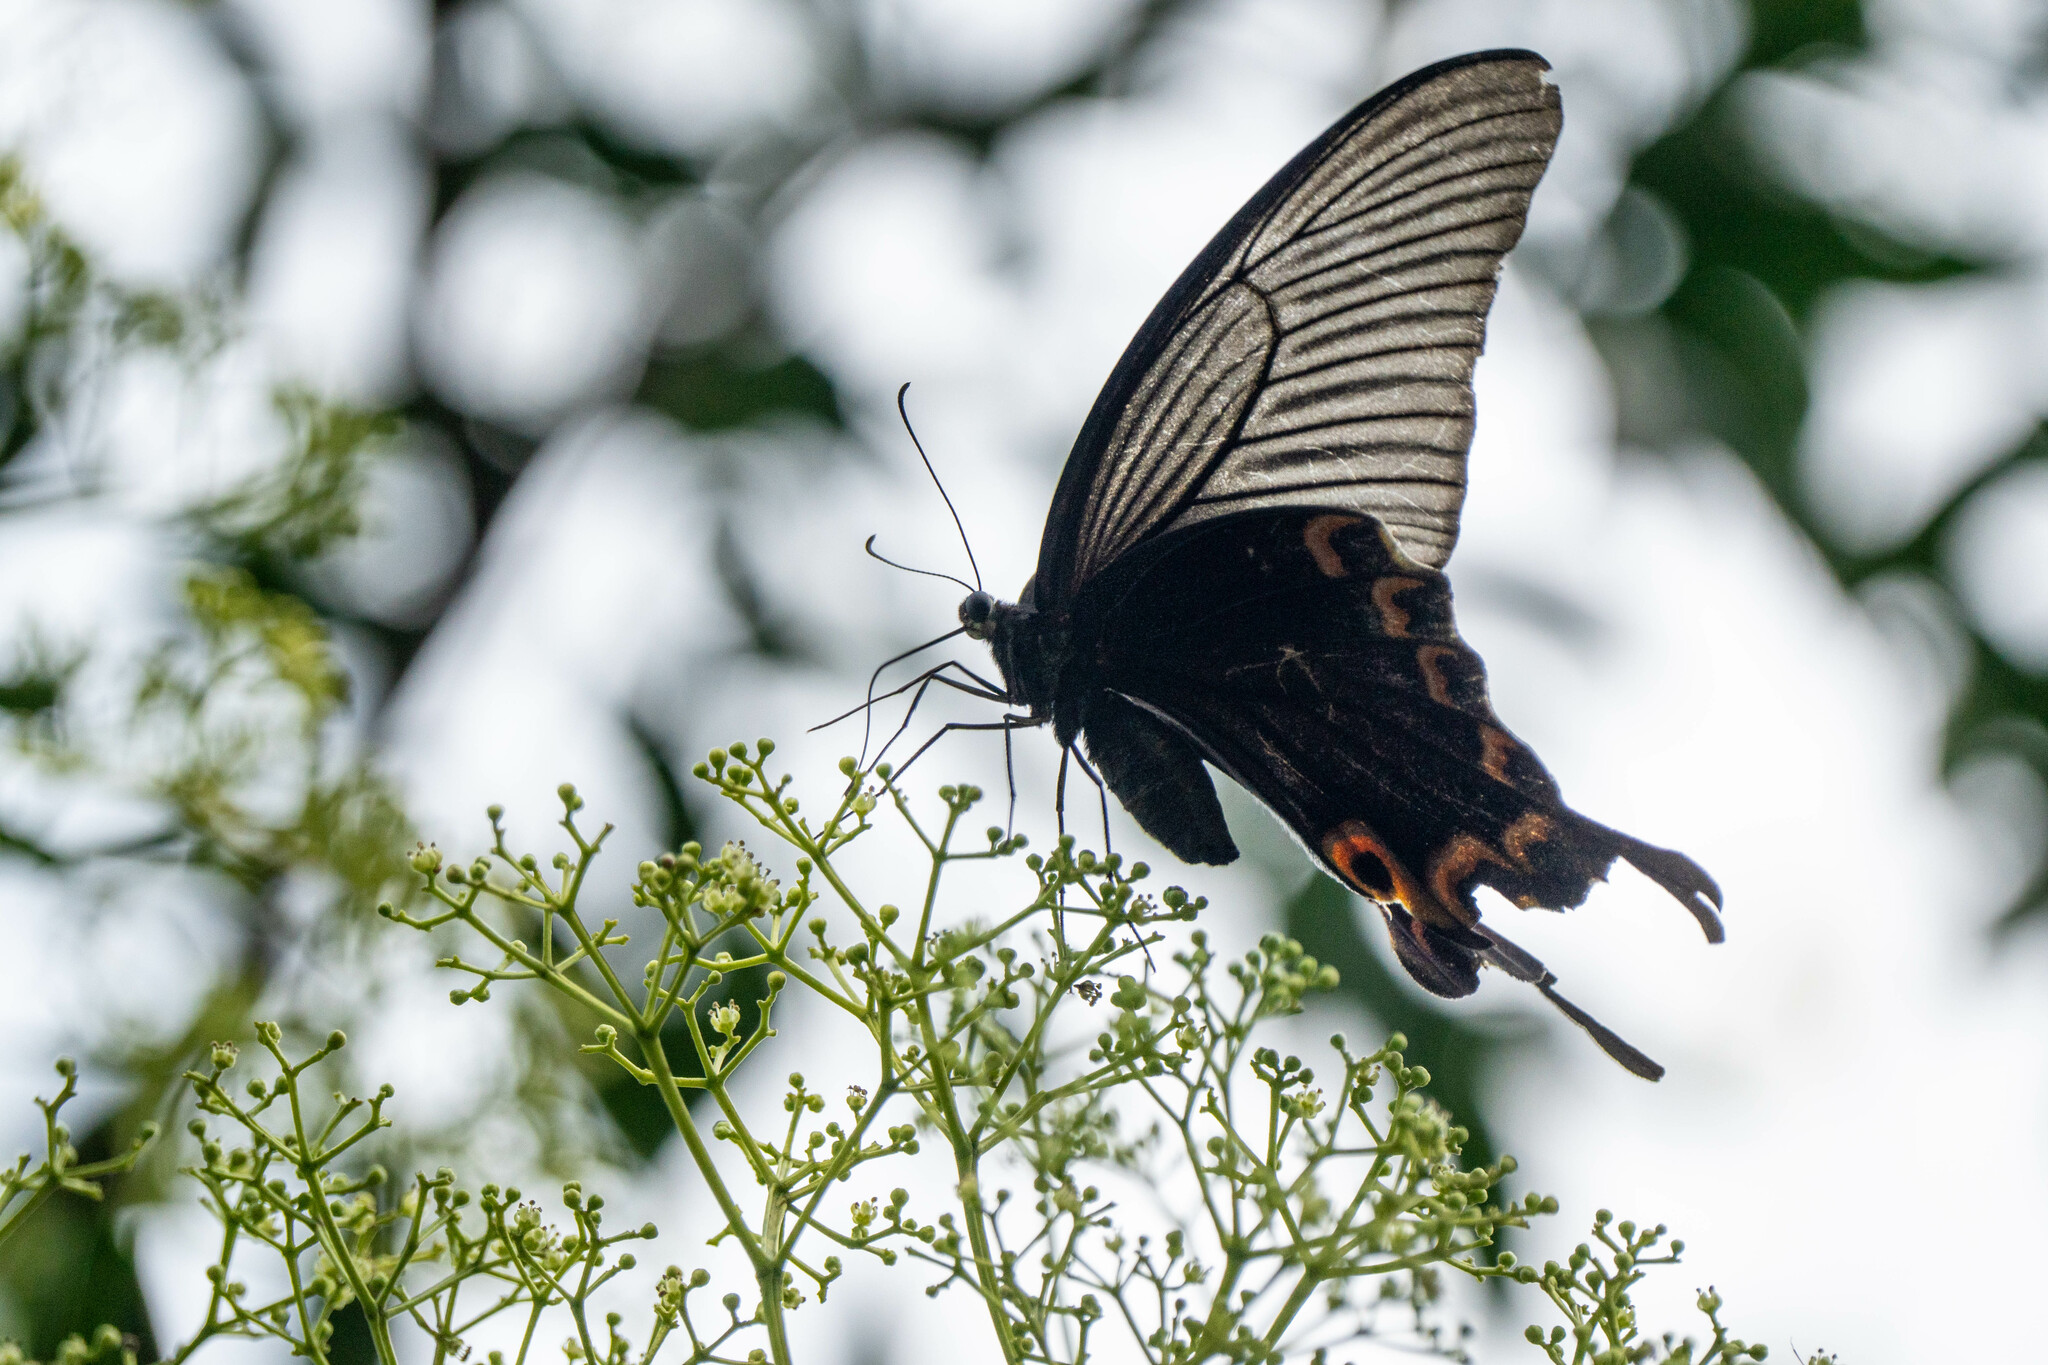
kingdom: Animalia
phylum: Arthropoda
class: Insecta
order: Lepidoptera
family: Papilionidae
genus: Papilio
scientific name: Papilio bianor
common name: Common peacock
